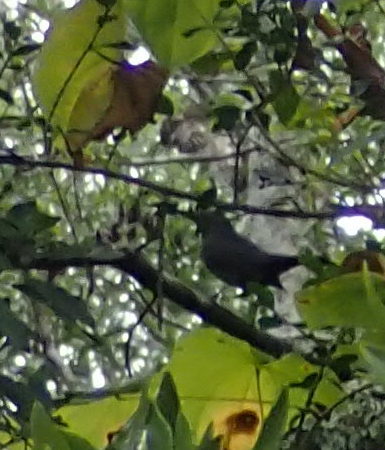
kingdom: Animalia
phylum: Chordata
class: Aves
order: Passeriformes
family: Mimidae
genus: Dumetella
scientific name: Dumetella carolinensis
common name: Gray catbird
